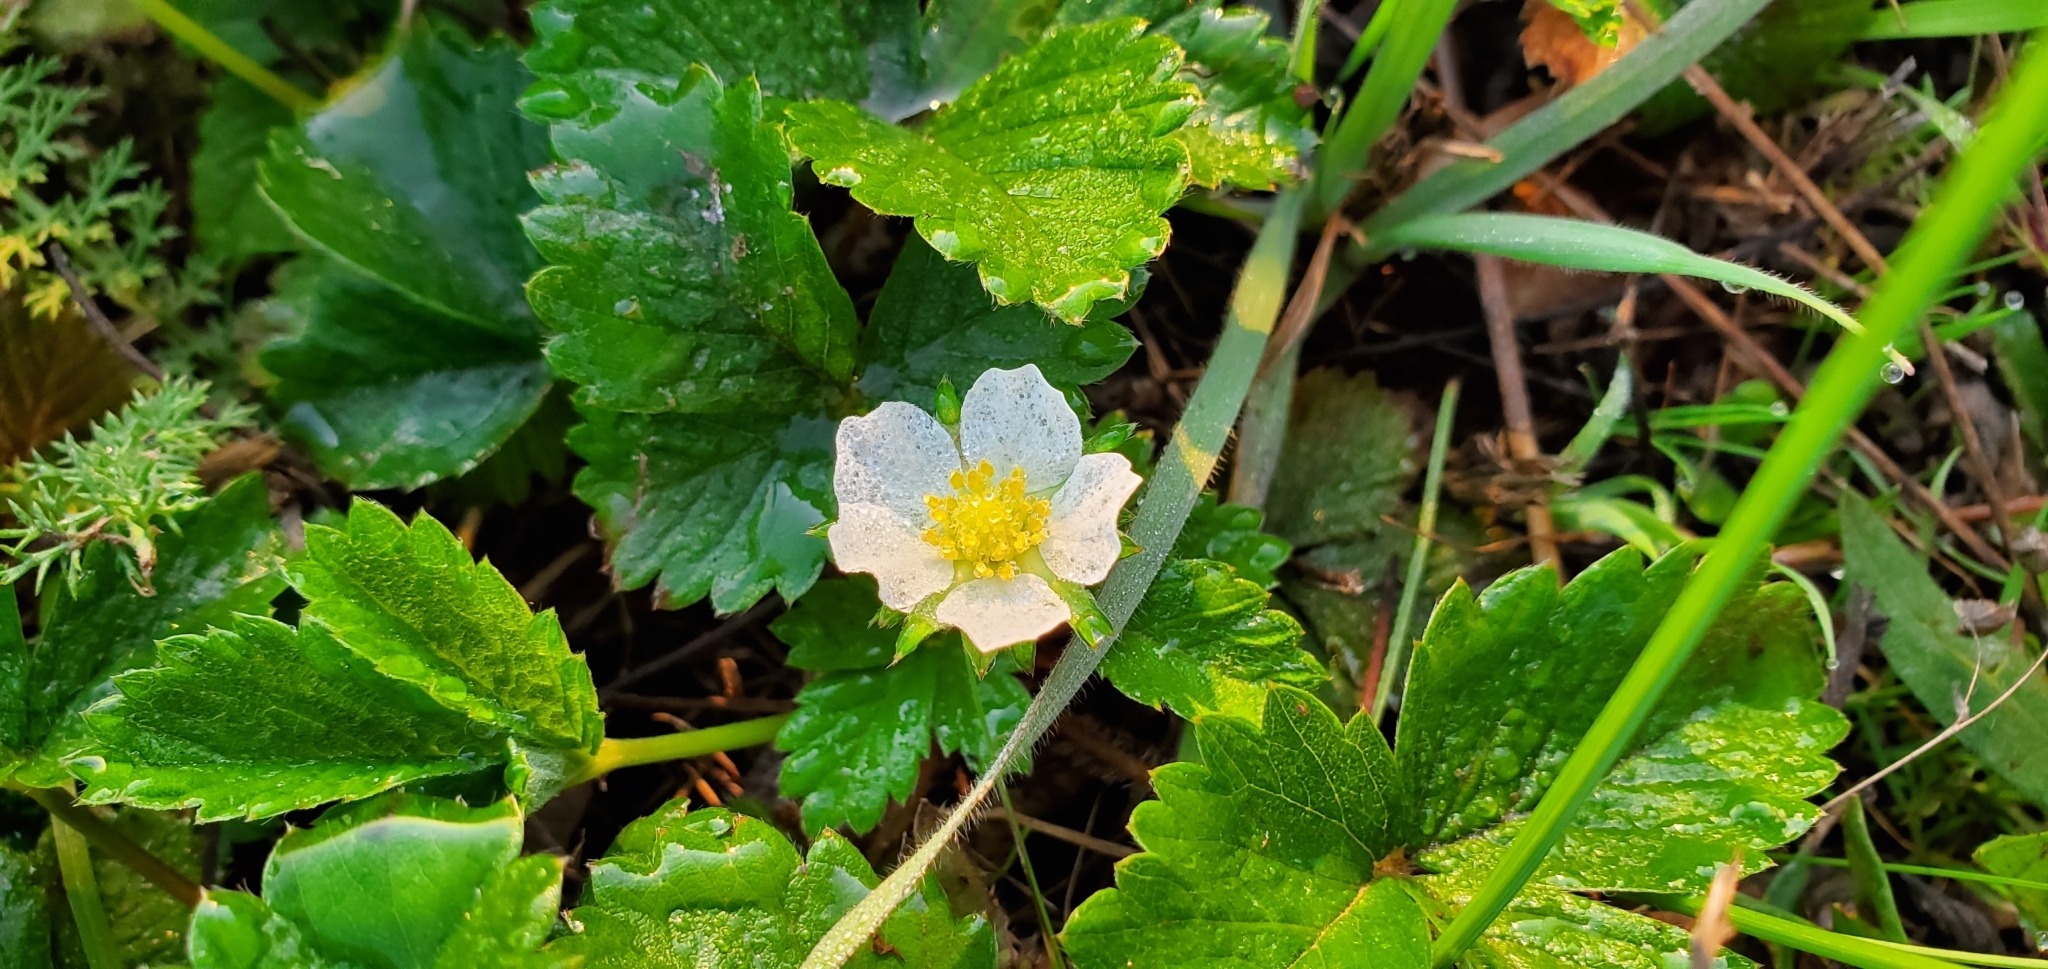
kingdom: Plantae
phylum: Tracheophyta
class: Magnoliopsida
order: Rosales
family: Rosaceae
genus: Fragaria
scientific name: Fragaria vesca
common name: Wild strawberry
